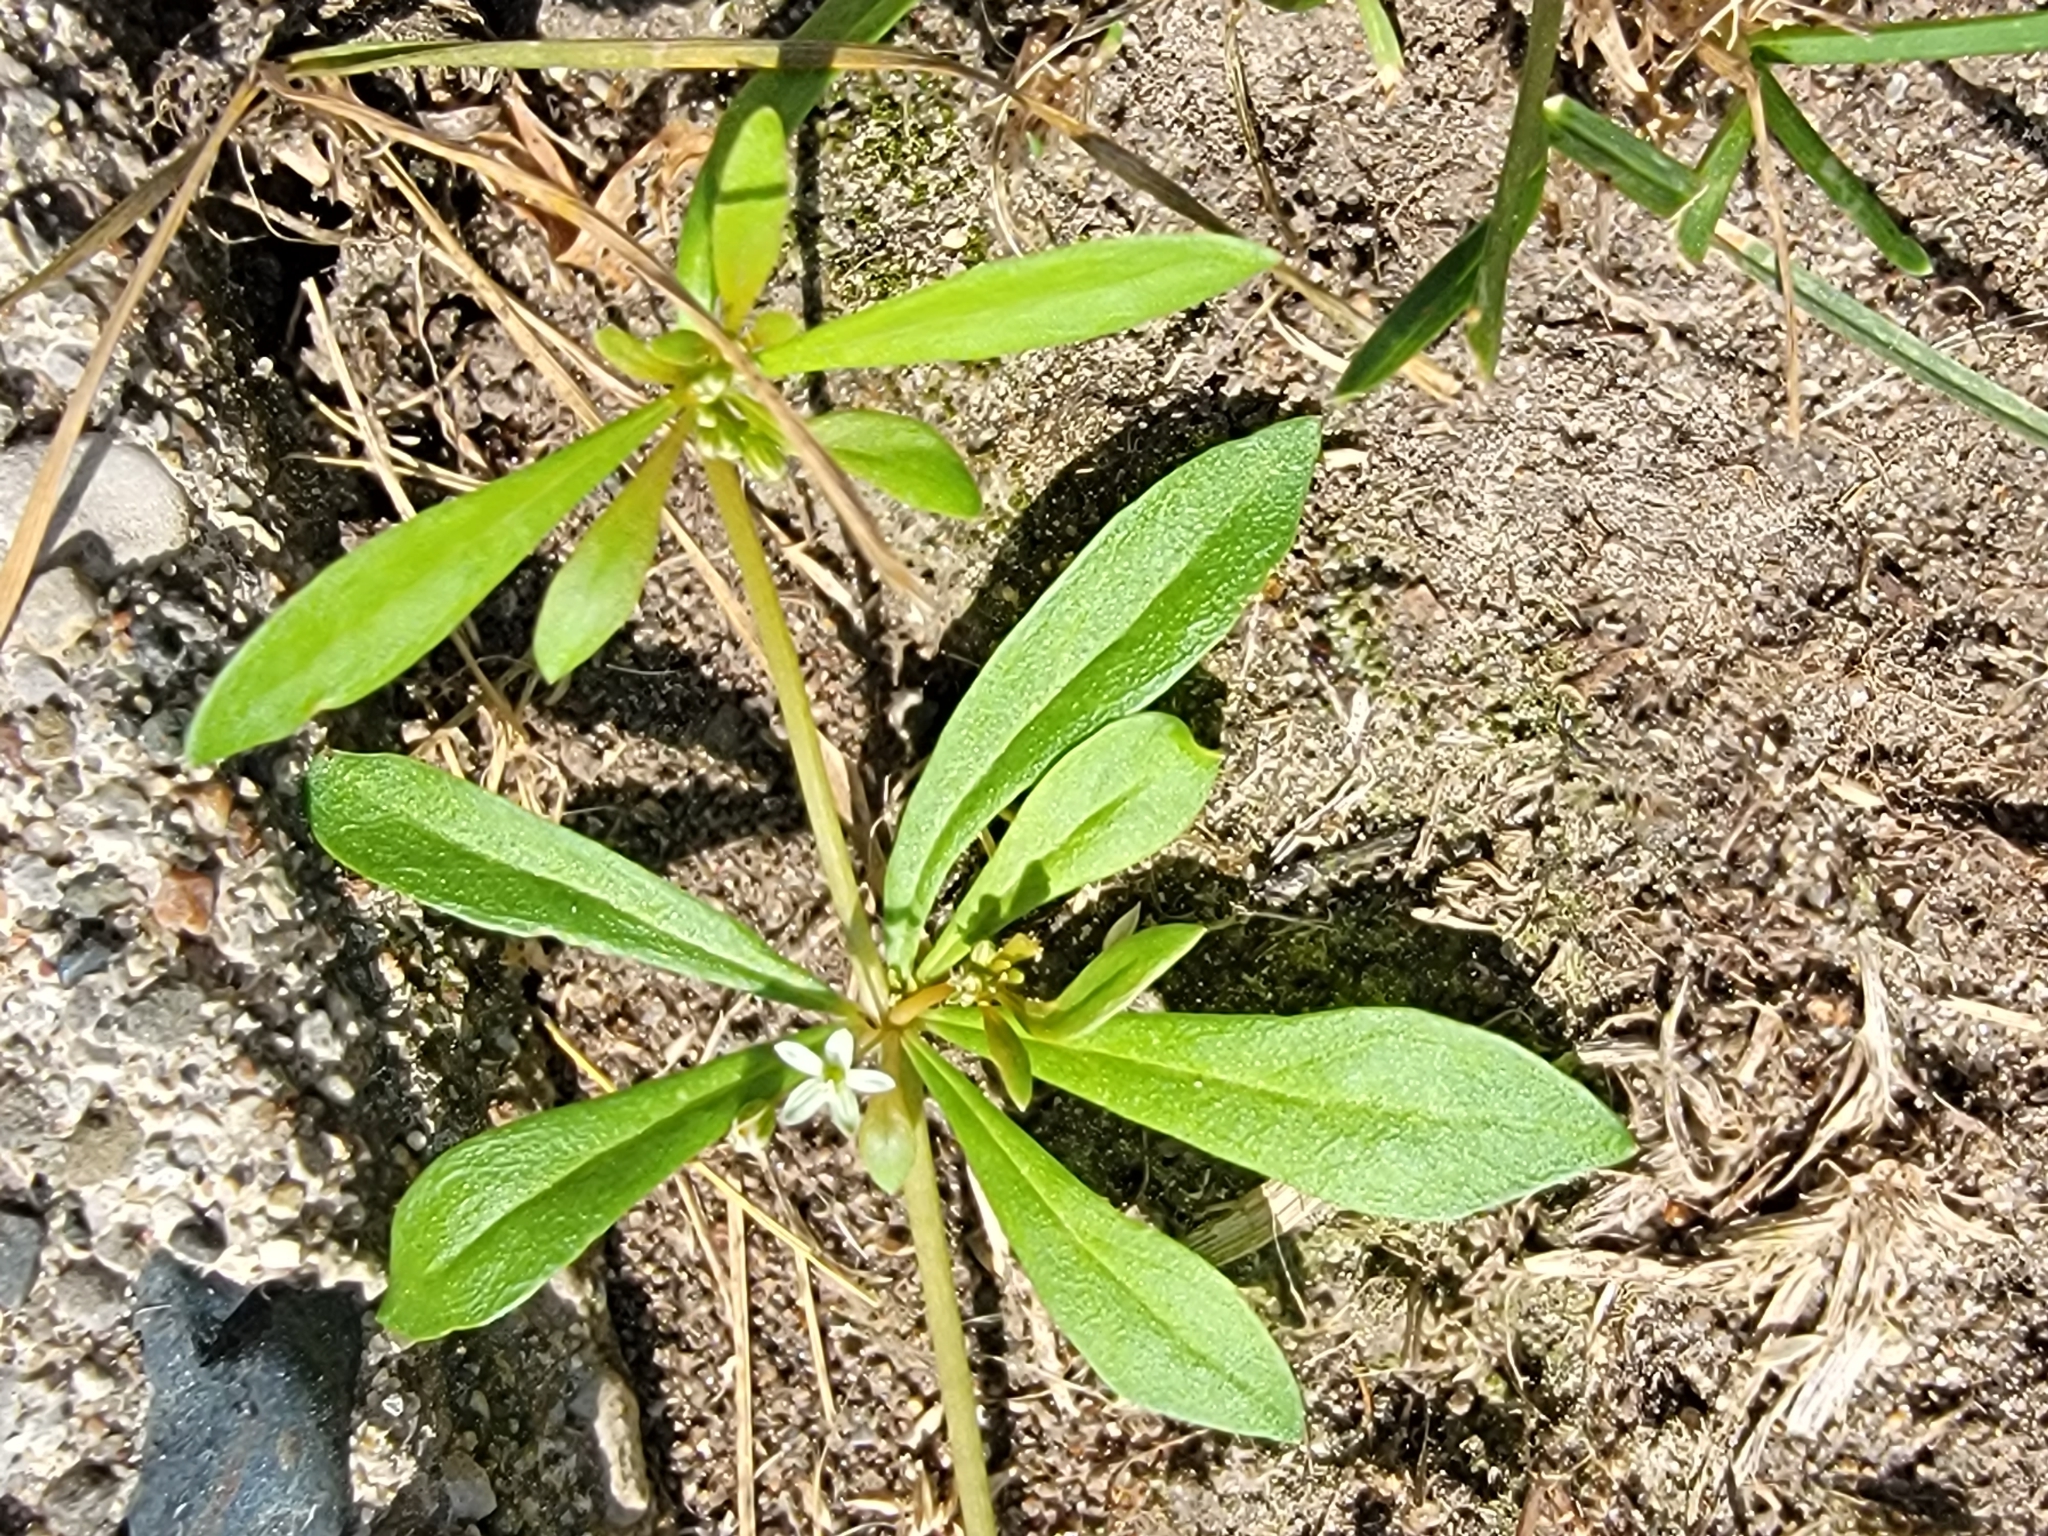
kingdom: Plantae
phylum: Tracheophyta
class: Magnoliopsida
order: Caryophyllales
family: Molluginaceae
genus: Mollugo
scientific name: Mollugo verticillata
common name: Green carpetweed
